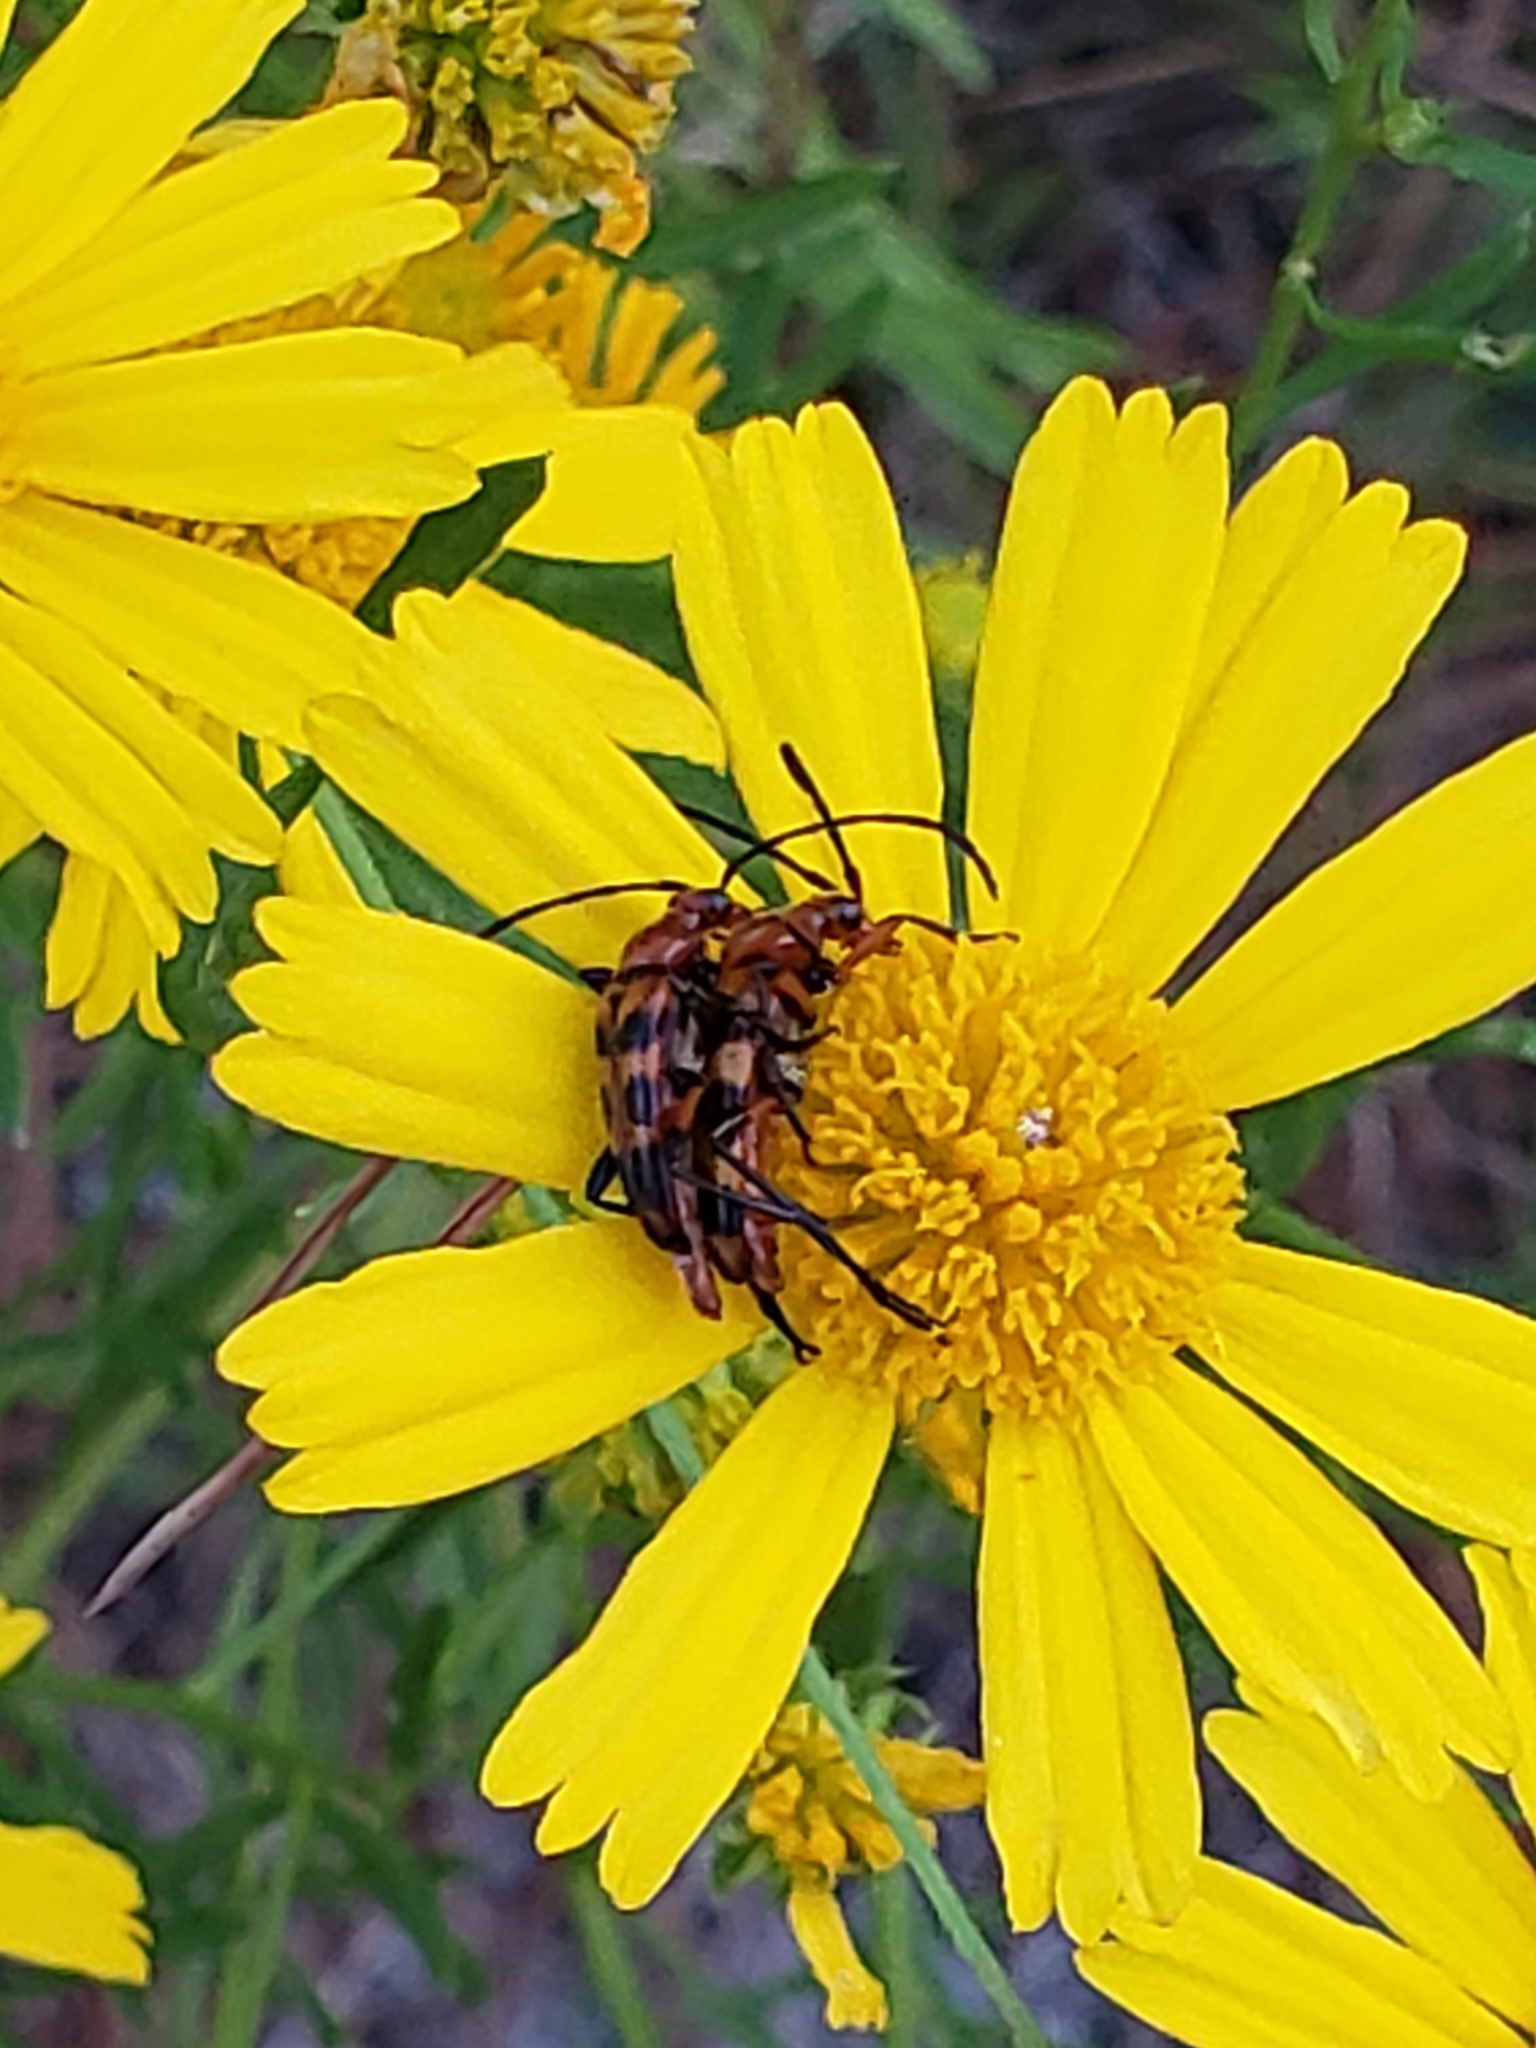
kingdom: Animalia
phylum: Arthropoda
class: Insecta
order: Coleoptera
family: Cerambycidae
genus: Strangalia
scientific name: Strangalia sexnotata
